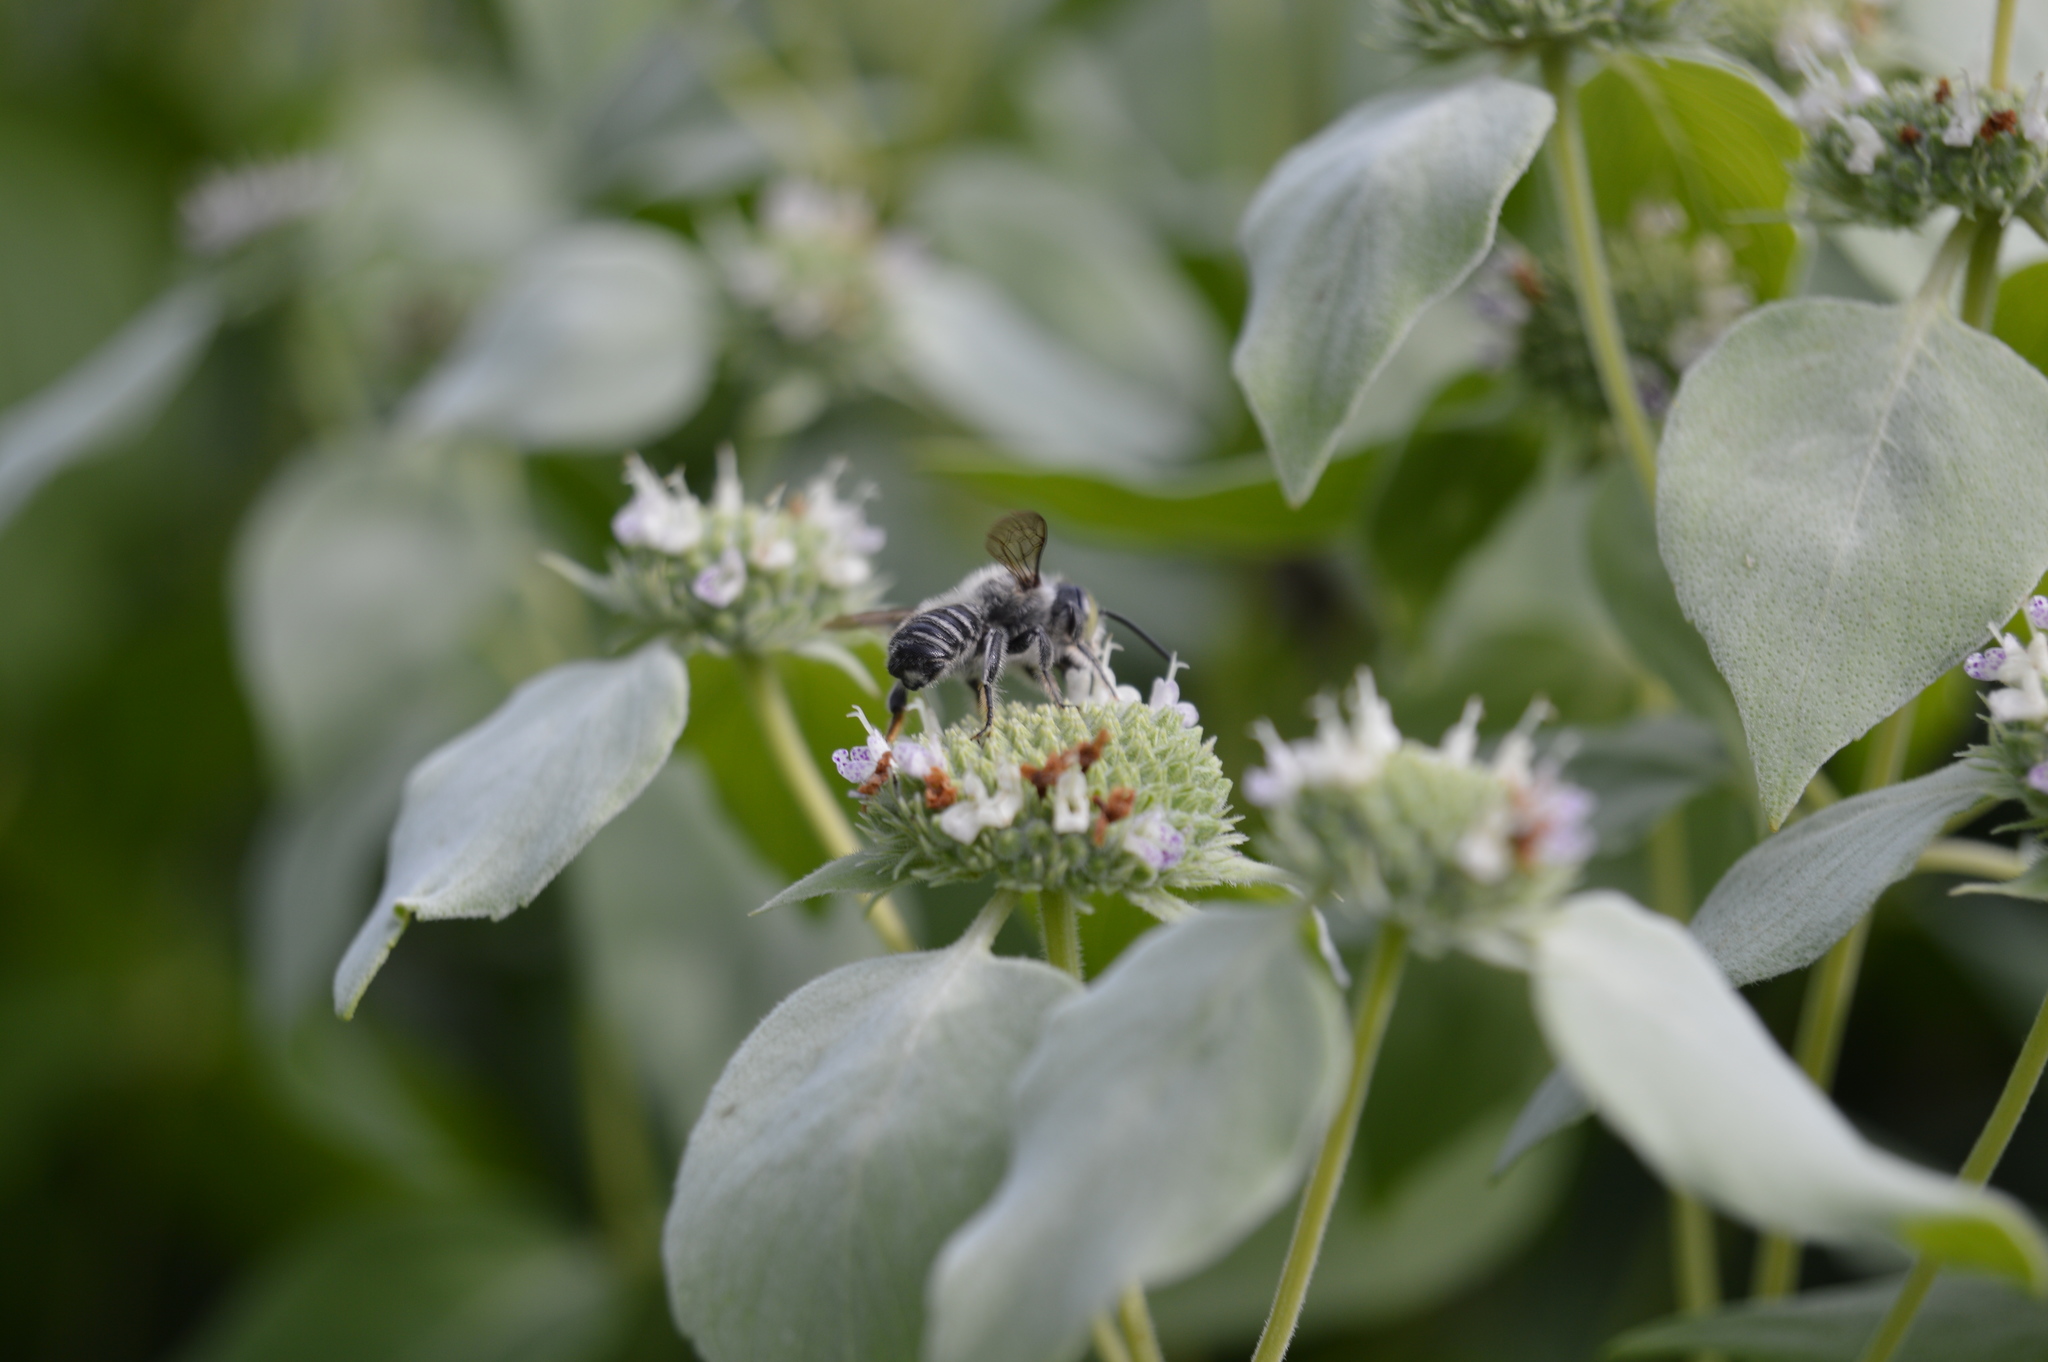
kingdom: Animalia
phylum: Arthropoda
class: Insecta
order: Hymenoptera
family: Megachilidae
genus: Megachile
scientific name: Megachile mendica
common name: Flat-tailed leafcutter
